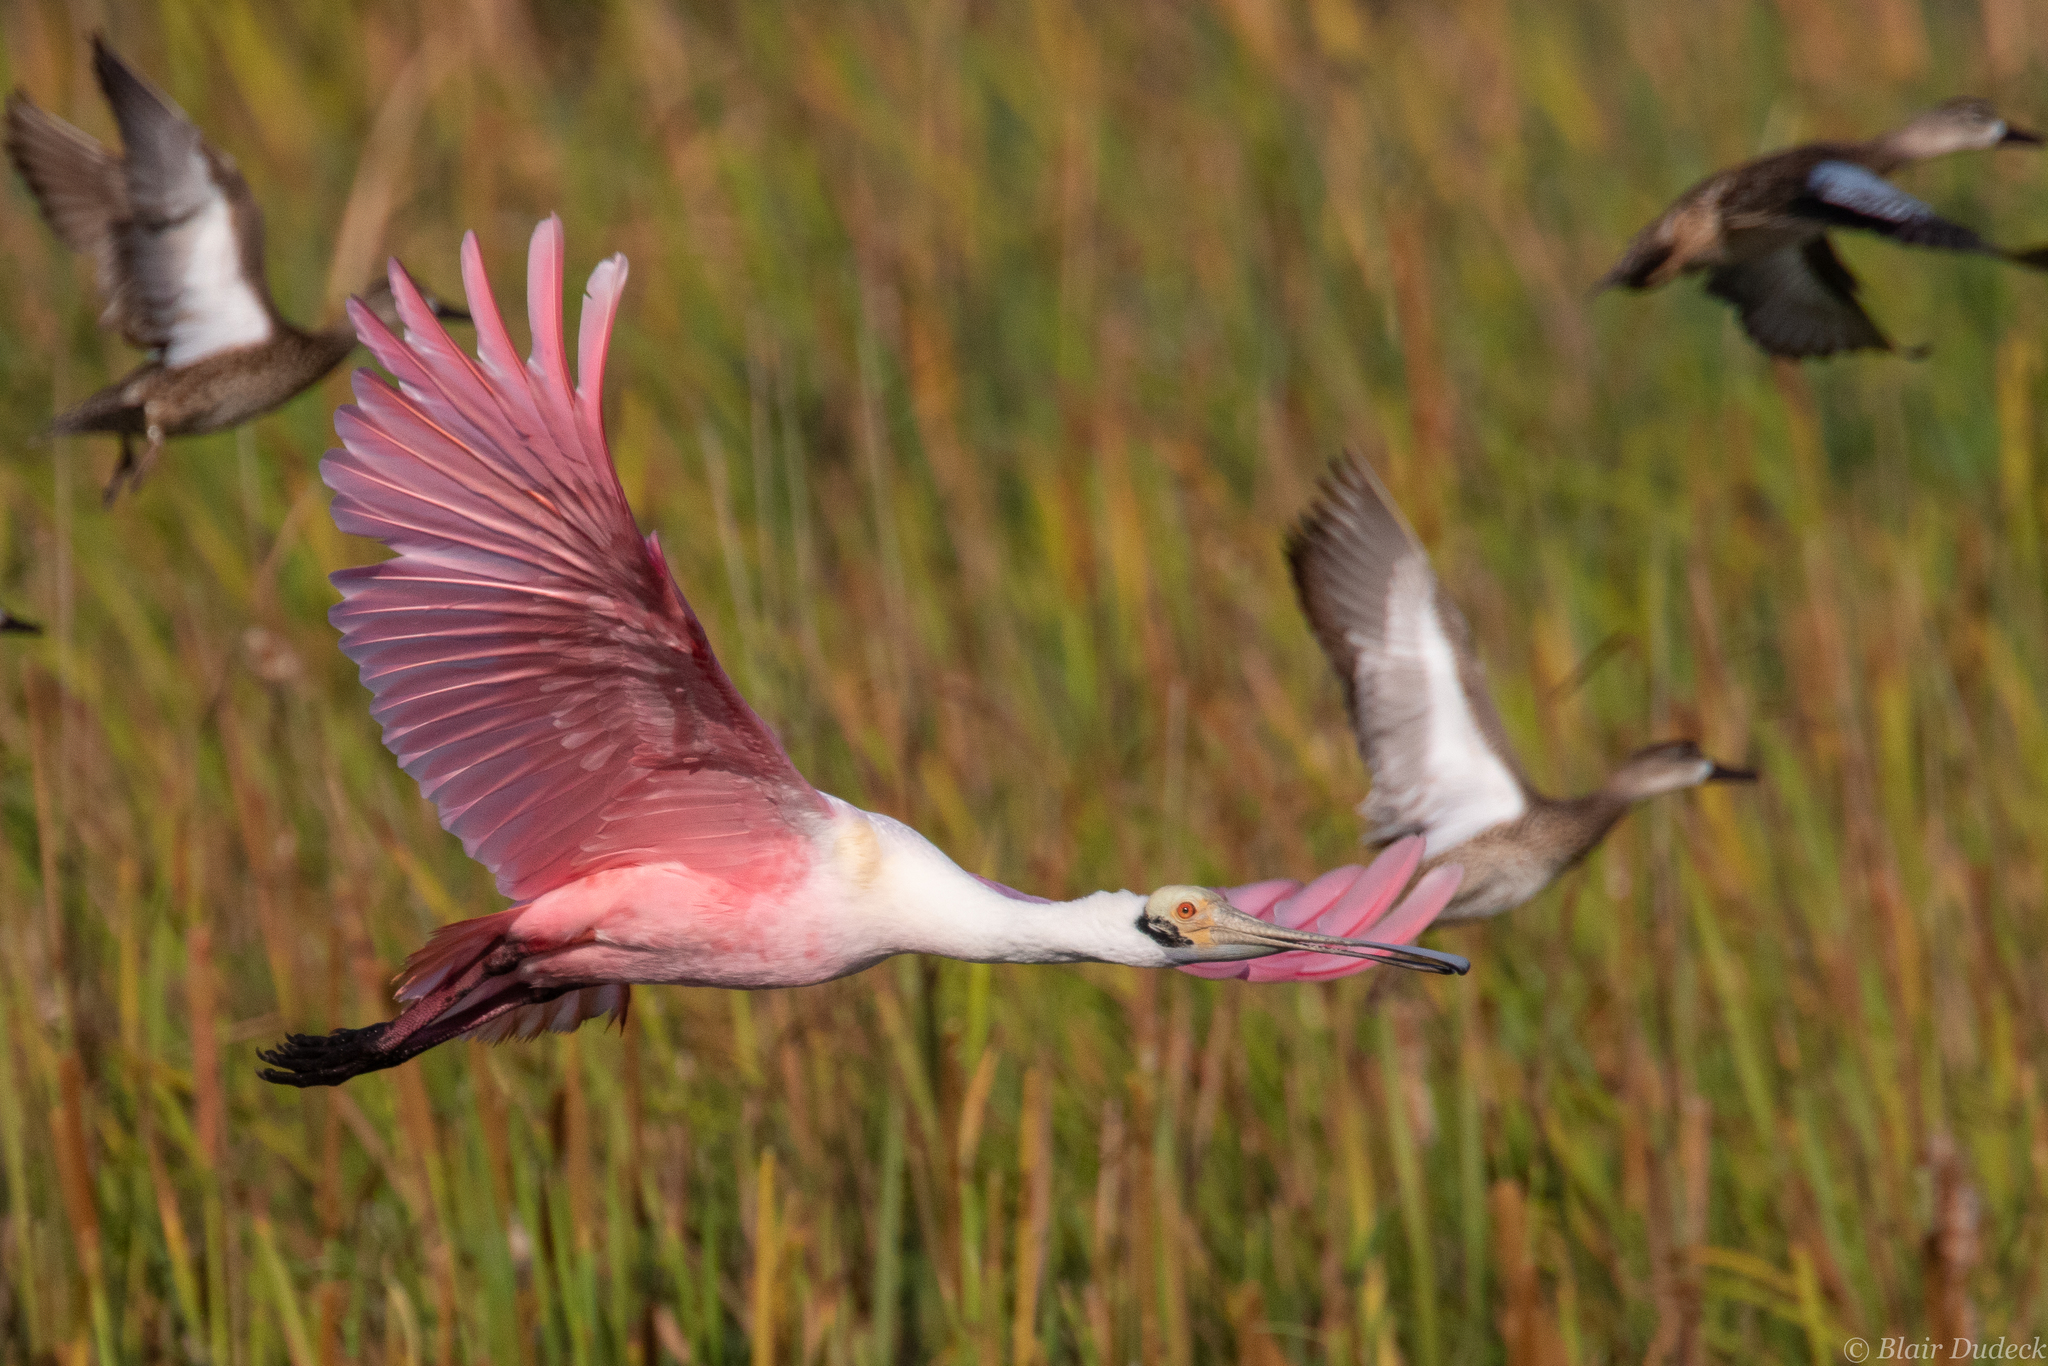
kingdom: Animalia
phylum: Chordata
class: Aves
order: Pelecaniformes
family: Threskiornithidae
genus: Platalea
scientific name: Platalea ajaja
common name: Roseate spoonbill
